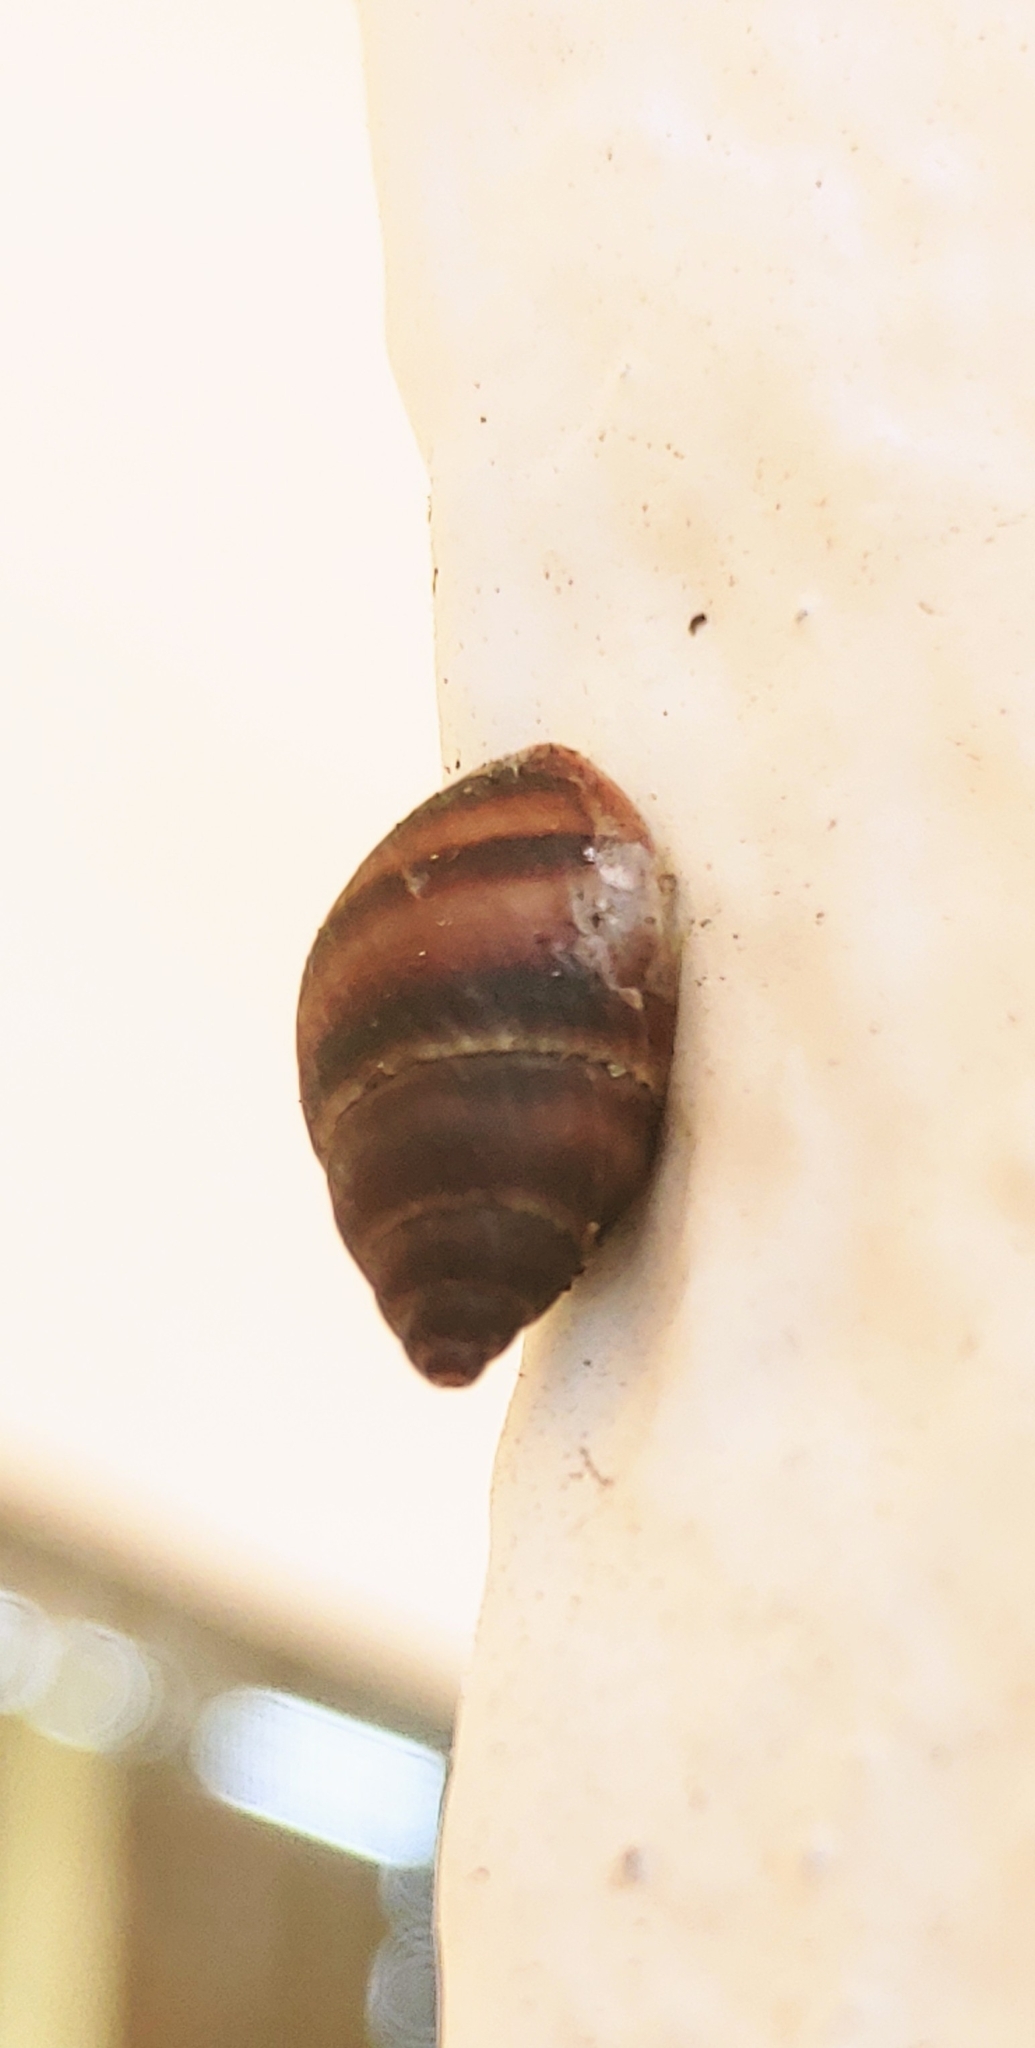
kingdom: Animalia
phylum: Mollusca
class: Gastropoda
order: Stylommatophora
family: Bulimulidae
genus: Bulimulus
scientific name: Bulimulus guadalupensis
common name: West indian bulimulus
